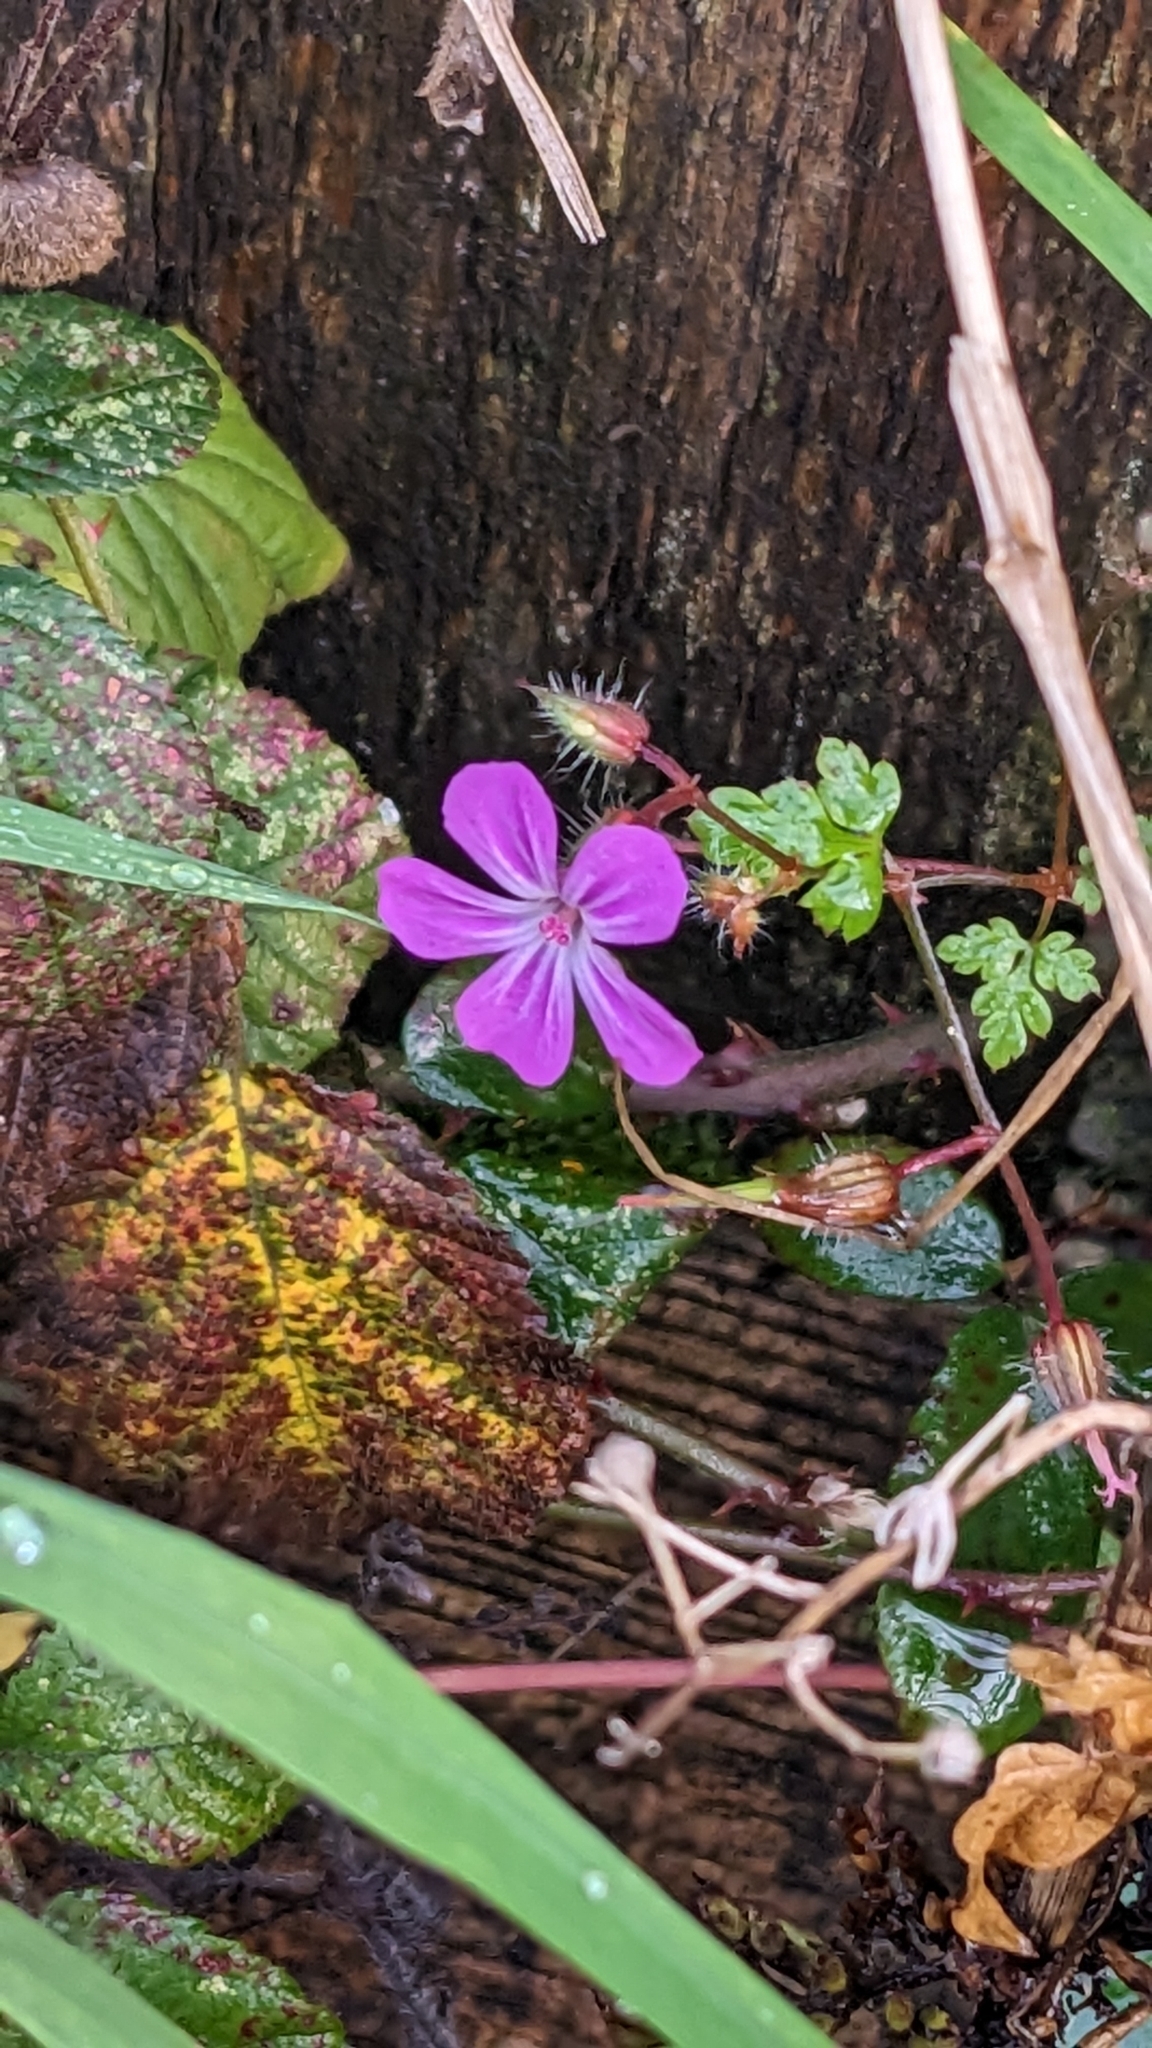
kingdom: Plantae
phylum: Tracheophyta
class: Magnoliopsida
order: Geraniales
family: Geraniaceae
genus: Geranium
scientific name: Geranium robertianum
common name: Herb-robert
